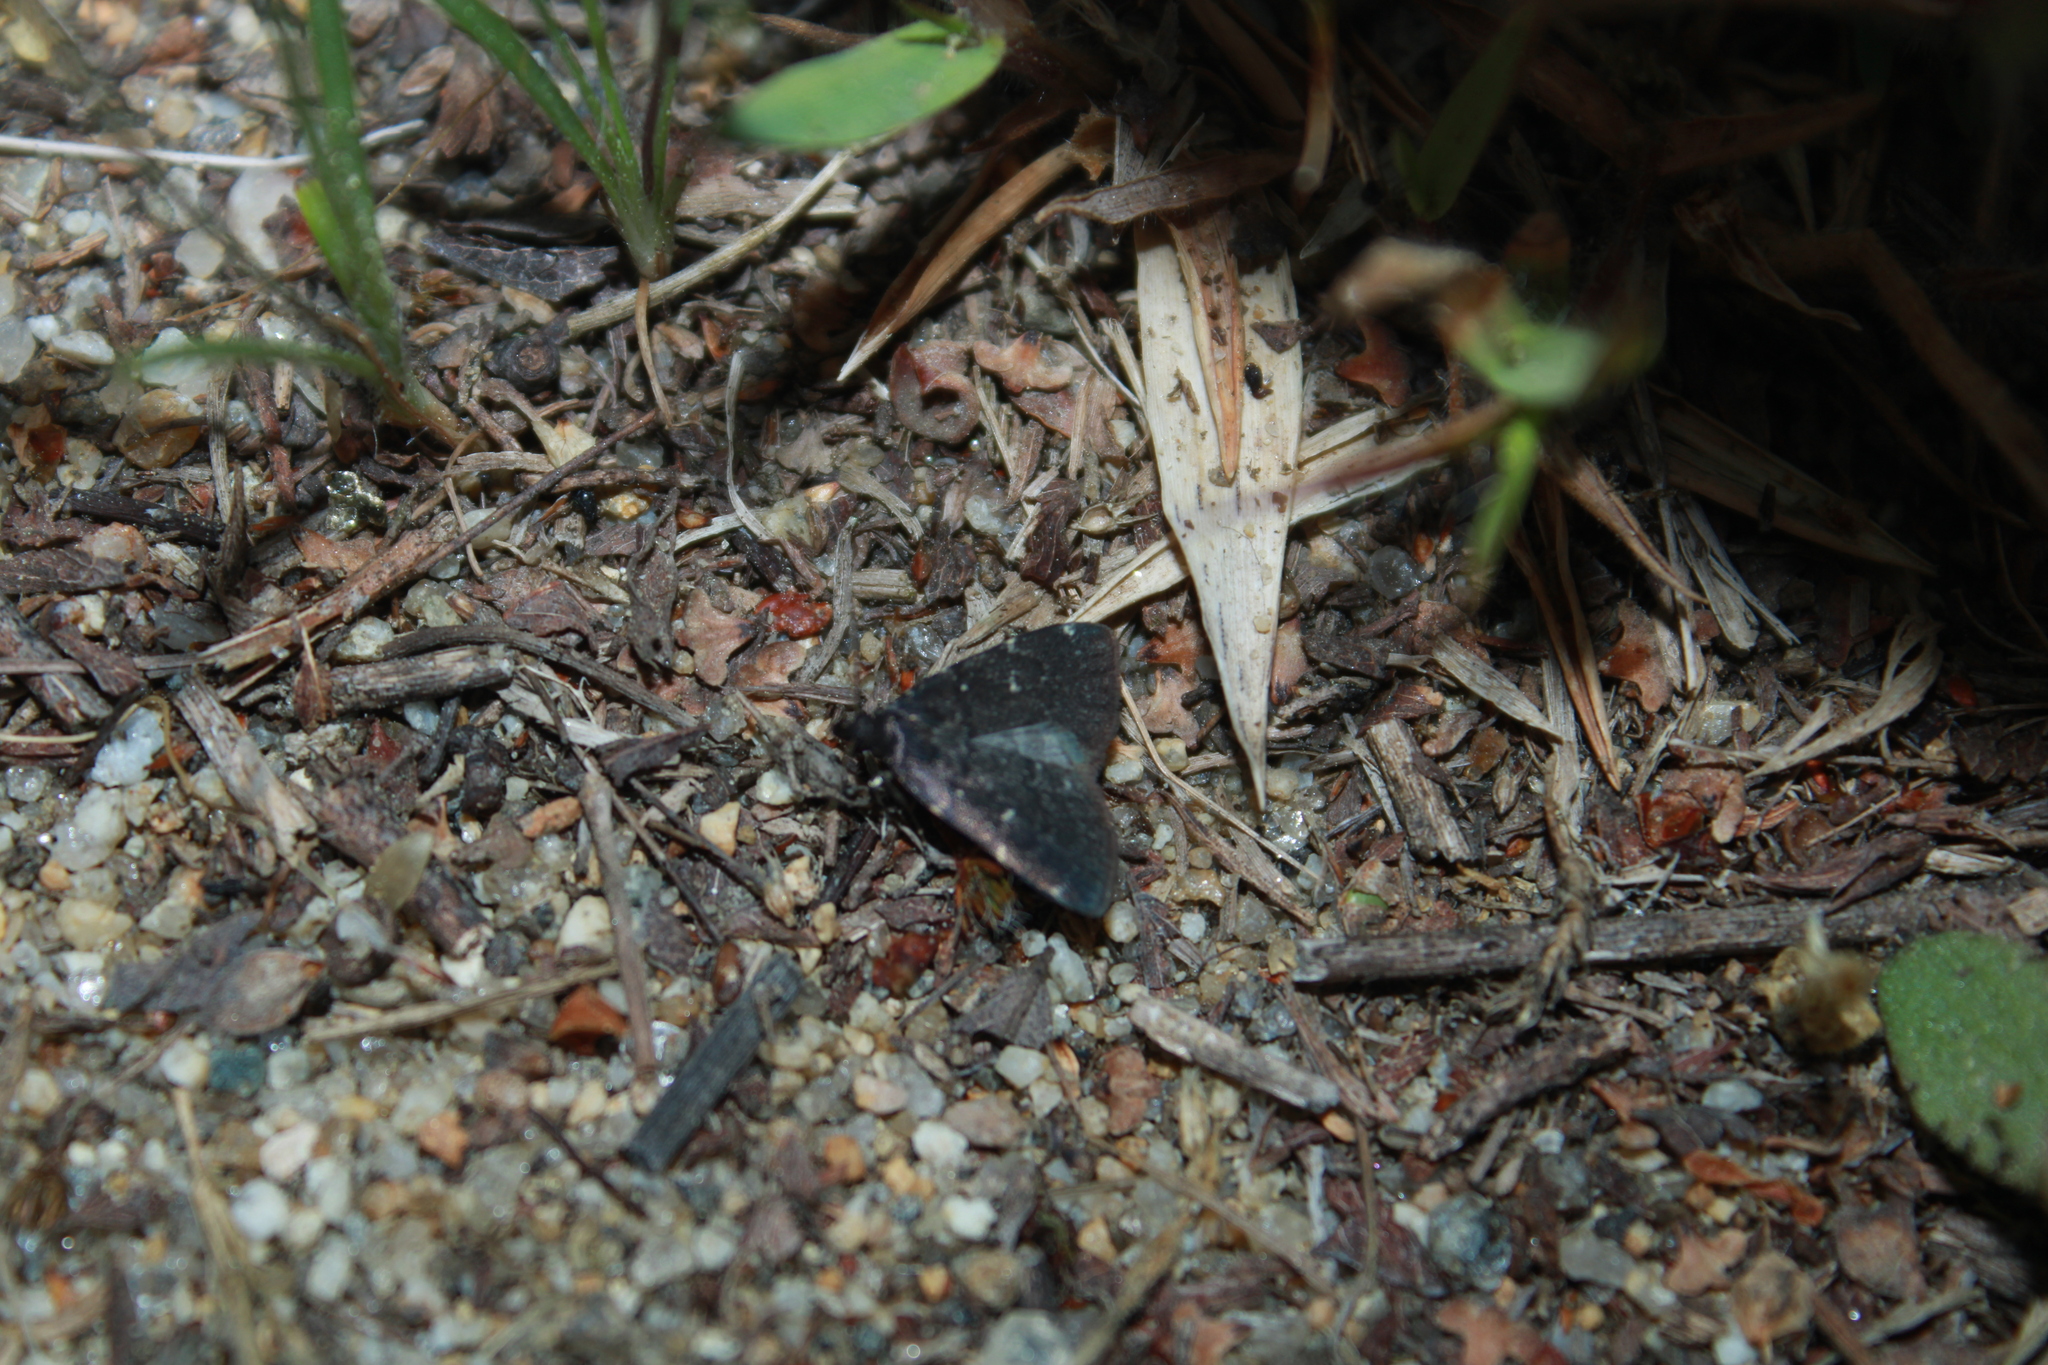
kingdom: Animalia
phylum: Arthropoda
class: Insecta
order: Lepidoptera
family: Erebidae
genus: Idia
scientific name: Idia julia
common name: Julia's idia moth
